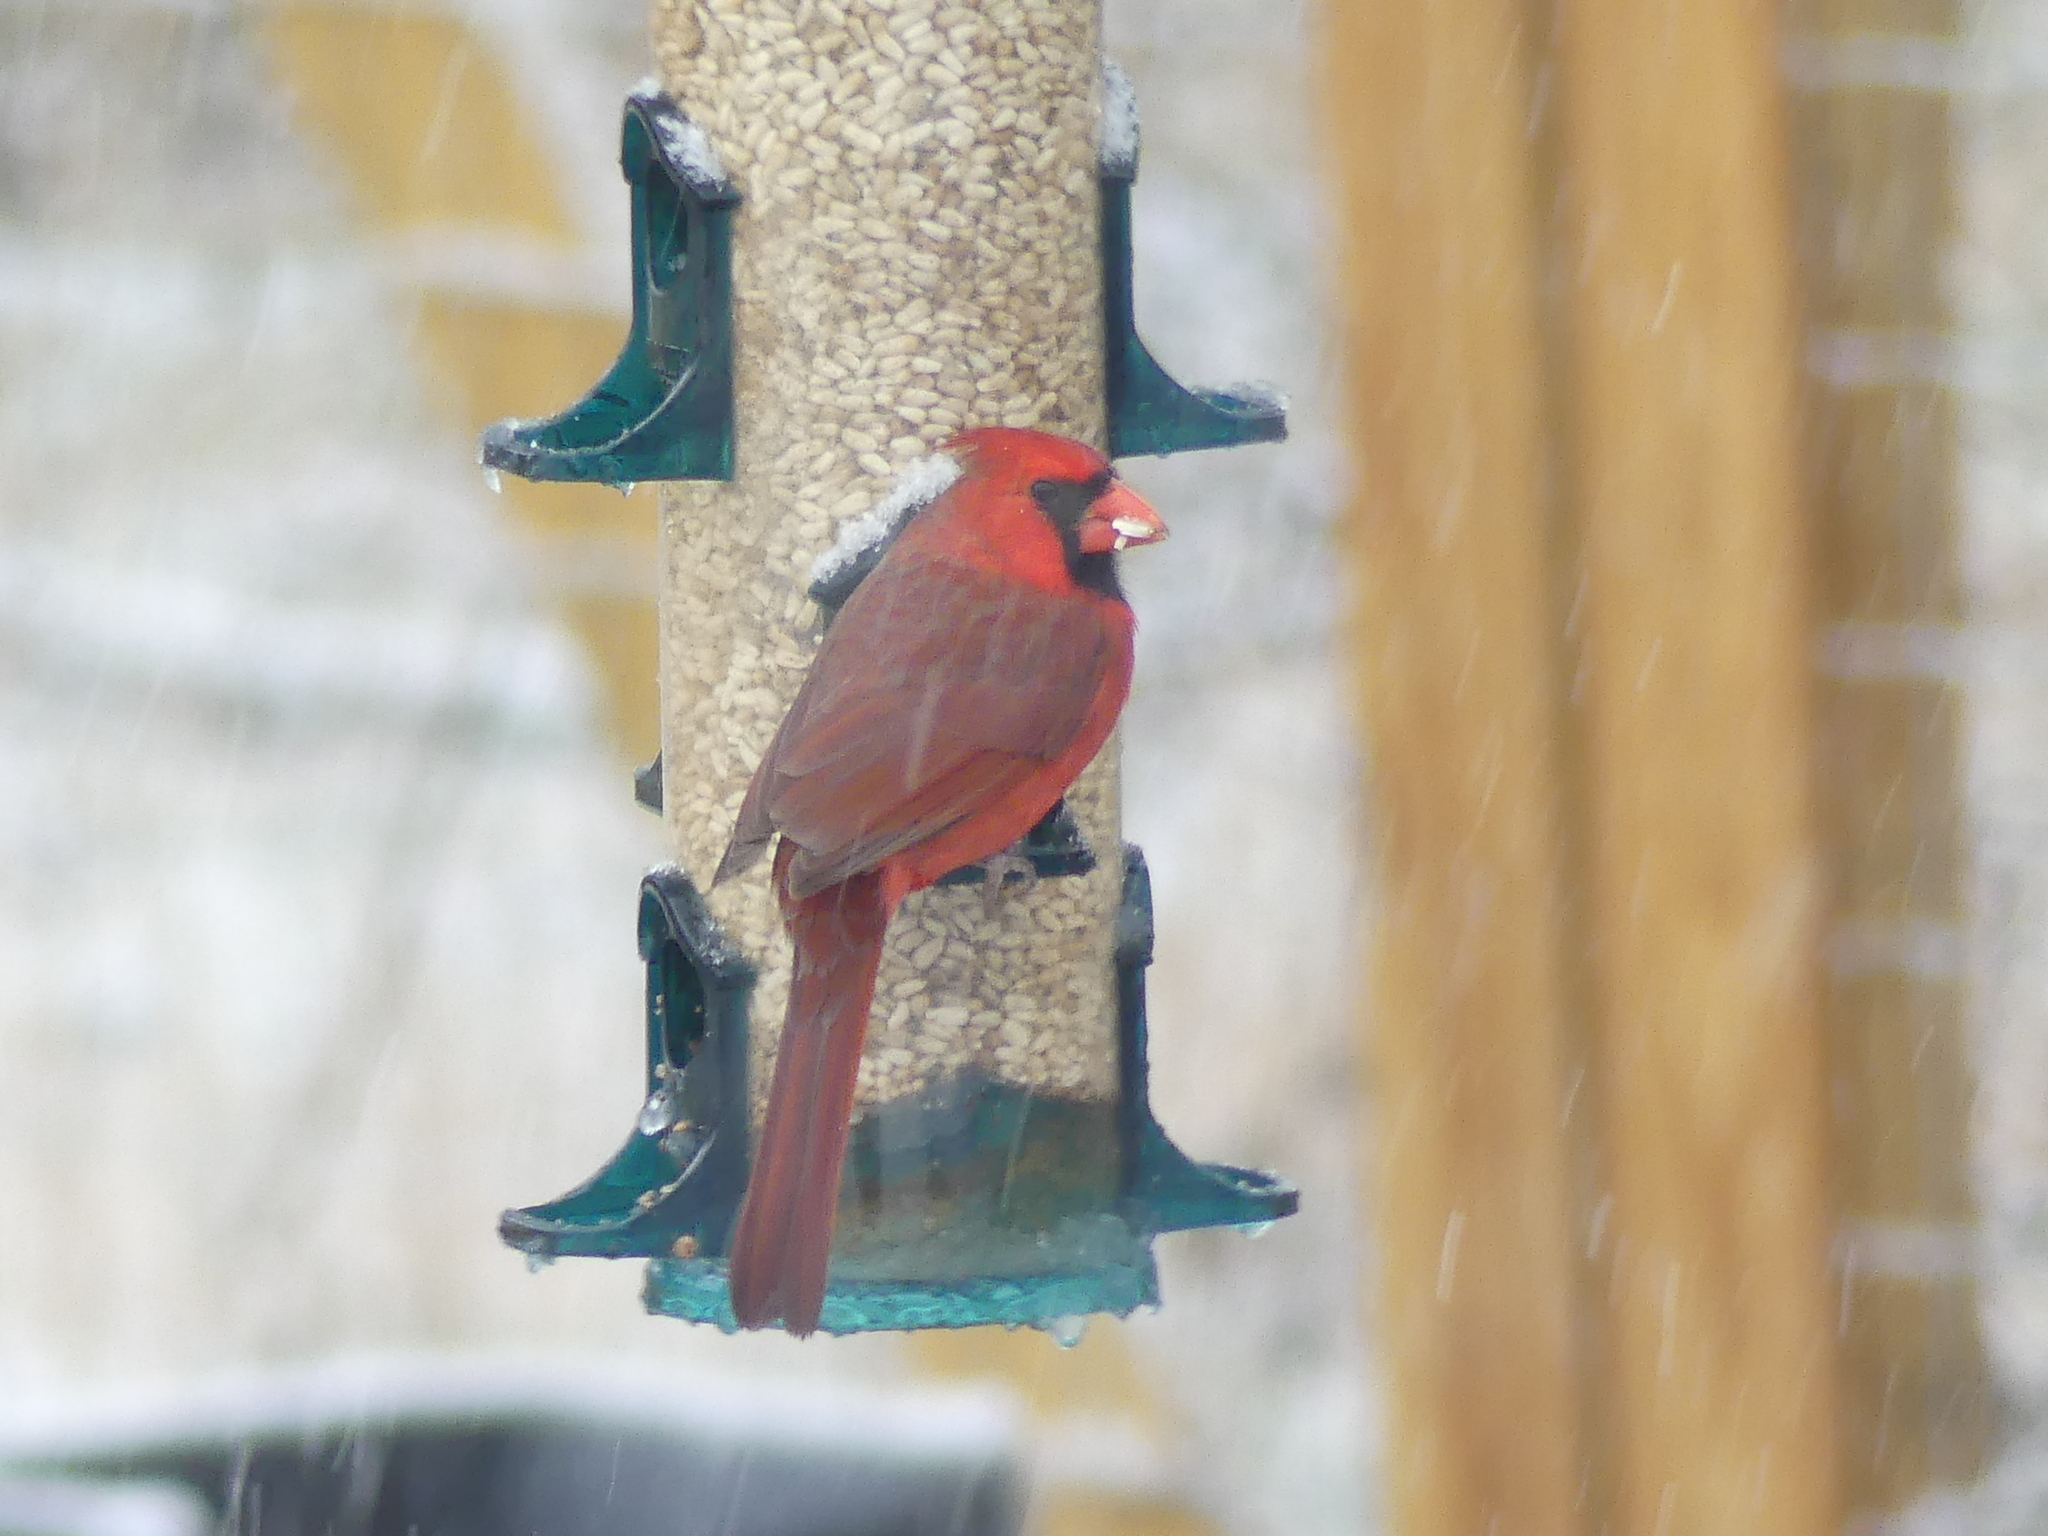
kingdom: Animalia
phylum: Chordata
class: Aves
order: Passeriformes
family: Cardinalidae
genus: Cardinalis
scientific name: Cardinalis cardinalis
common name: Northern cardinal
